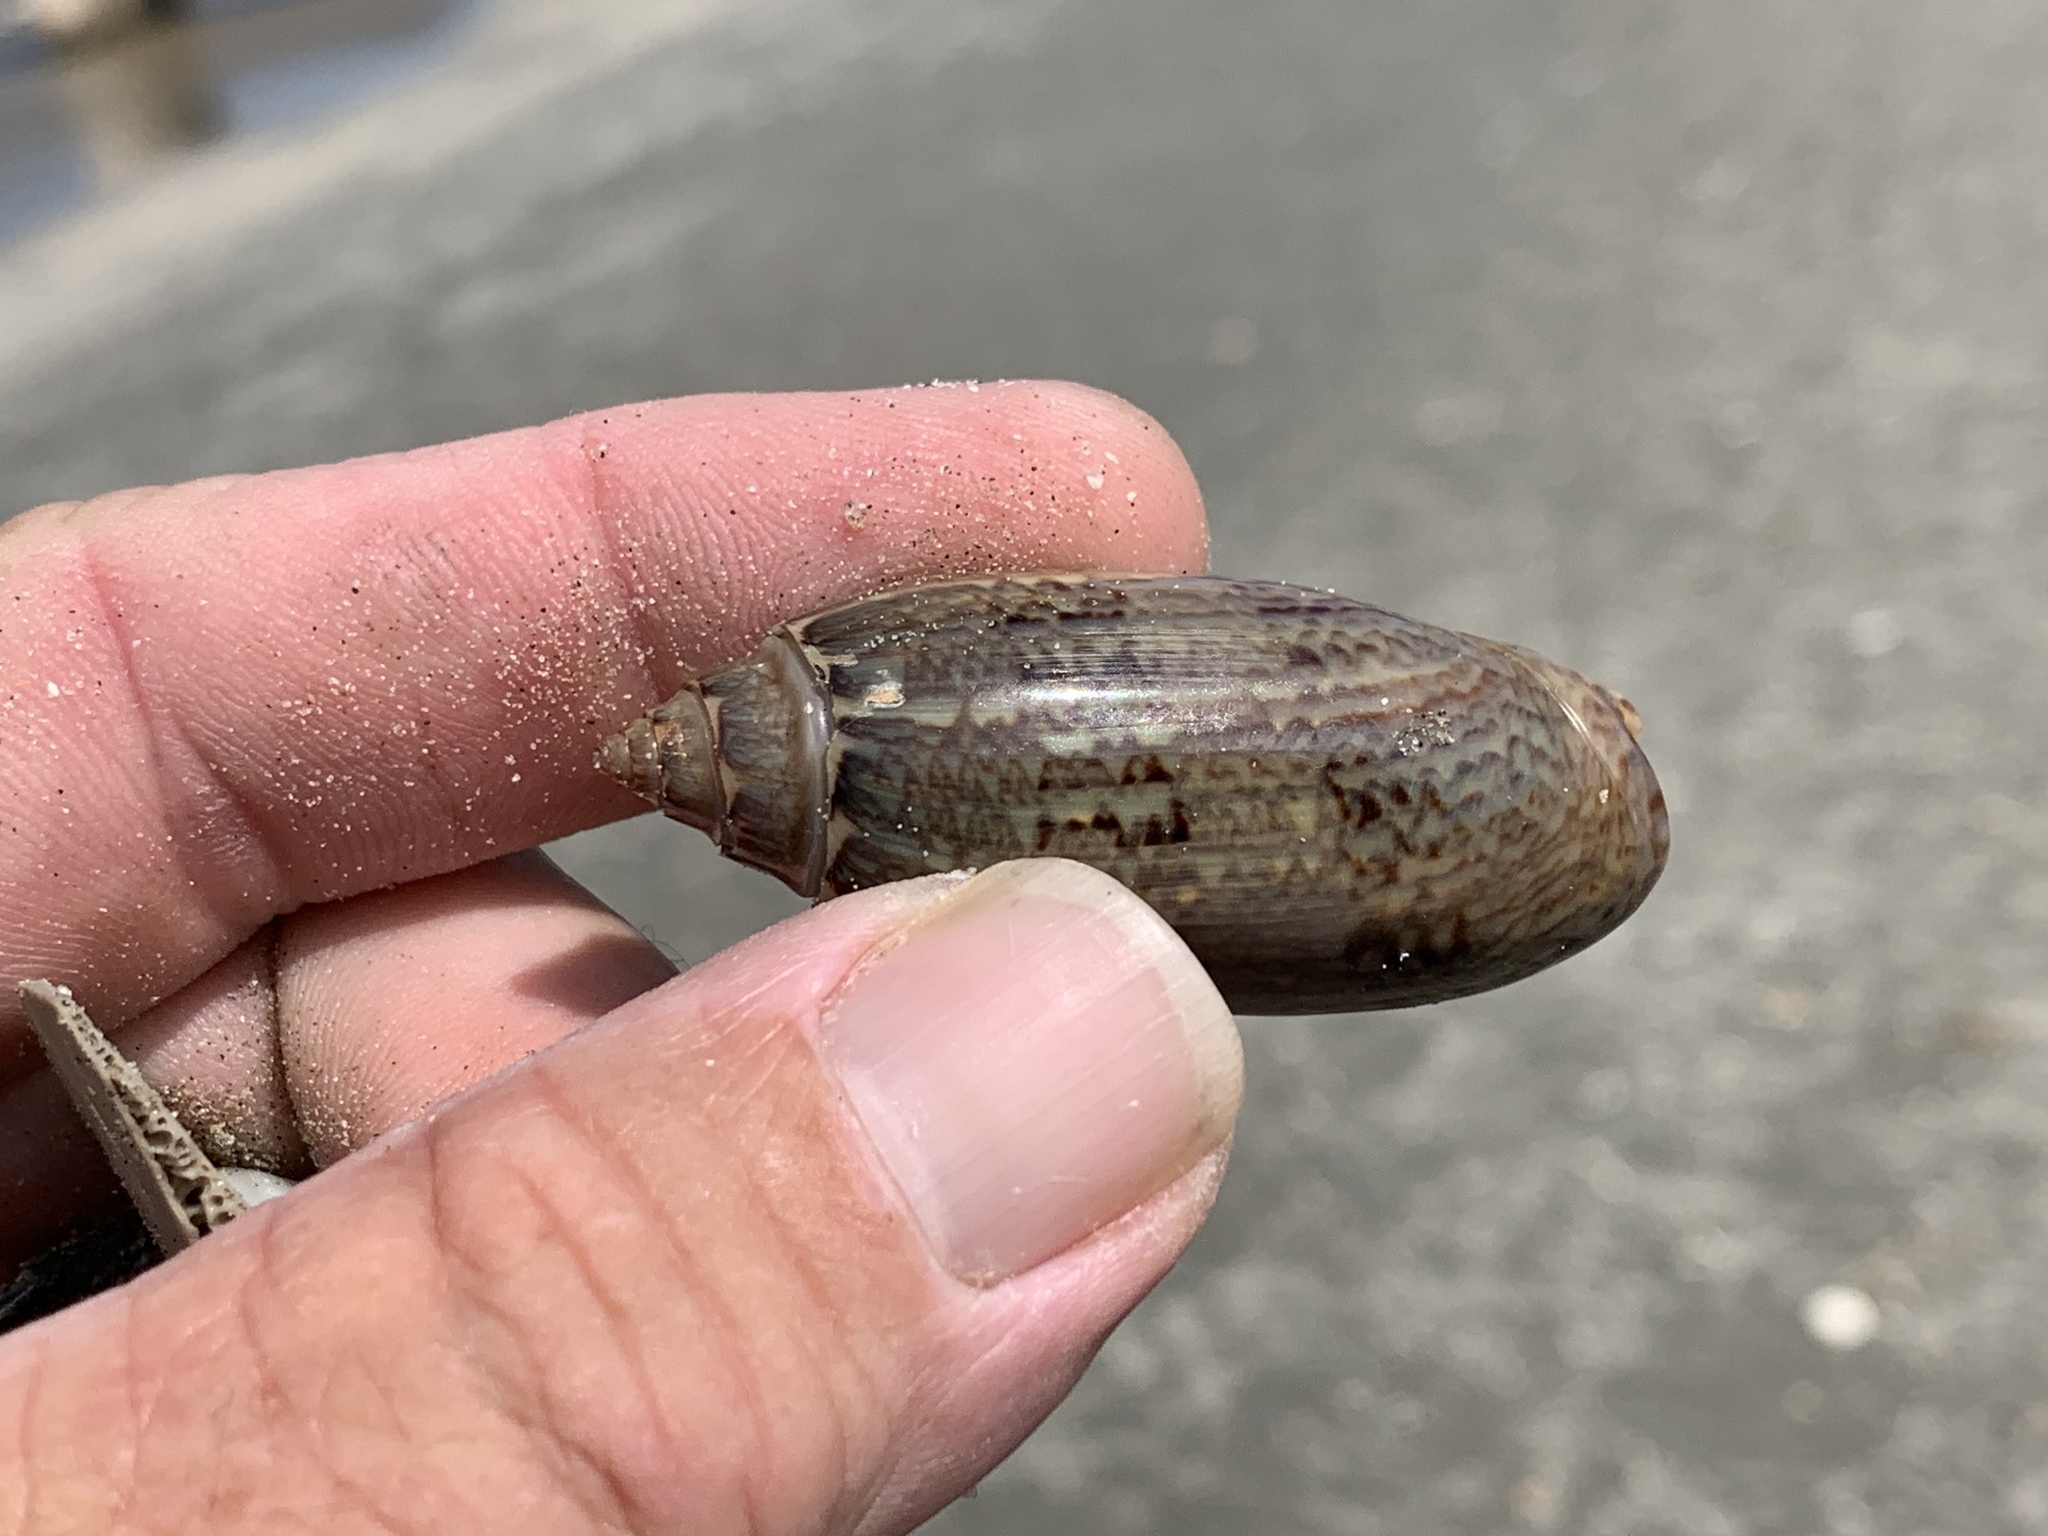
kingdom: Animalia
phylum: Mollusca
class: Gastropoda
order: Neogastropoda
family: Olividae
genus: Oliva
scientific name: Oliva sayana
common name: Lettered olive
